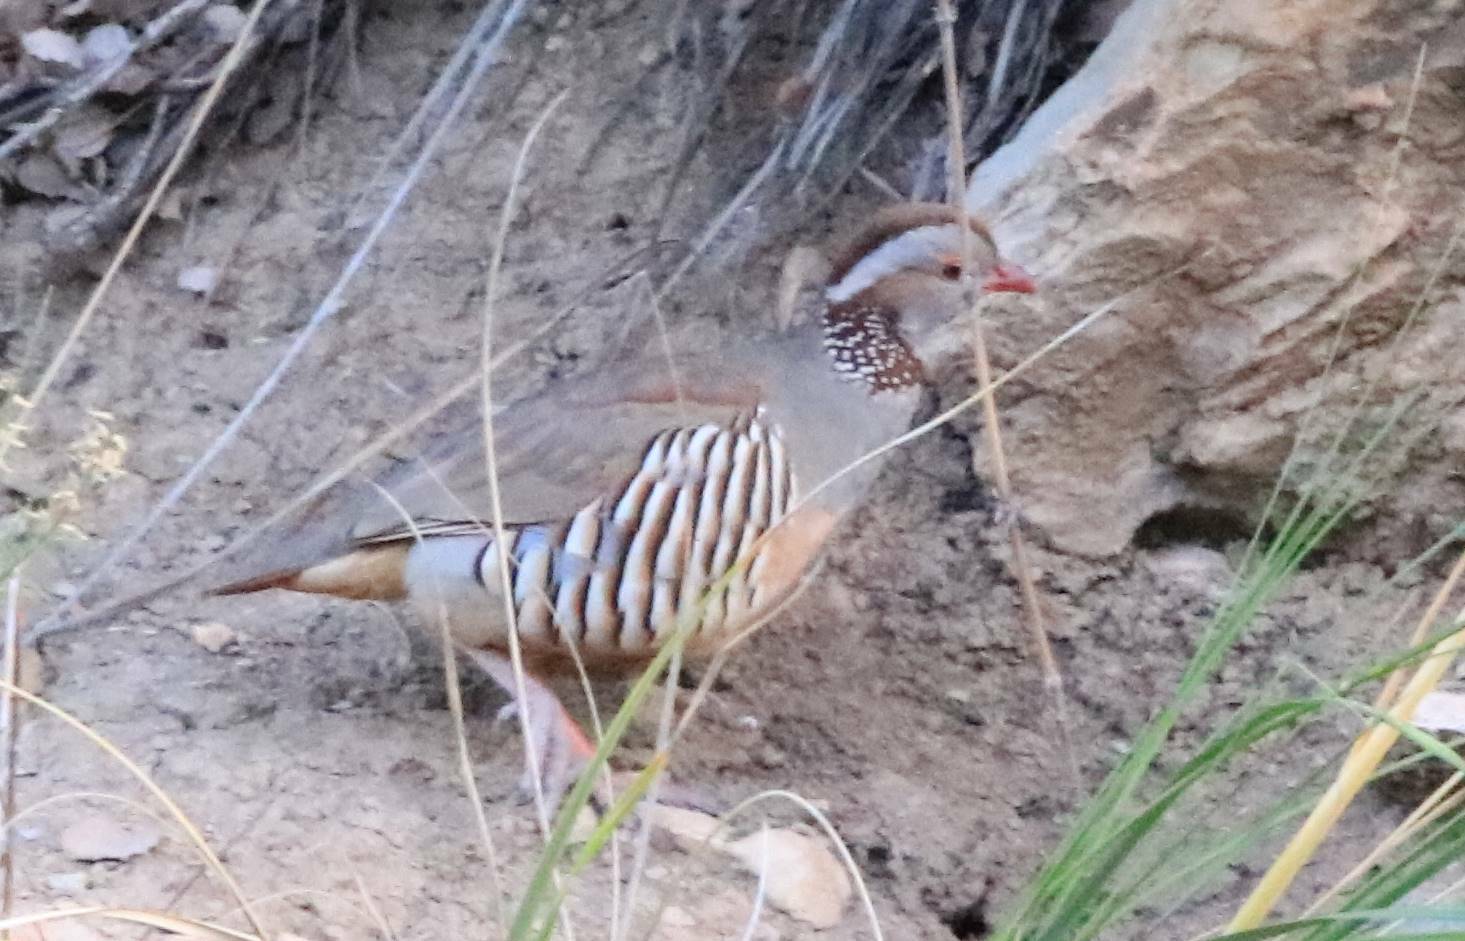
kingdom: Animalia
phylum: Chordata
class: Aves
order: Galliformes
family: Phasianidae
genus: Alectoris
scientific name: Alectoris barbara
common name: Barbary partridge
